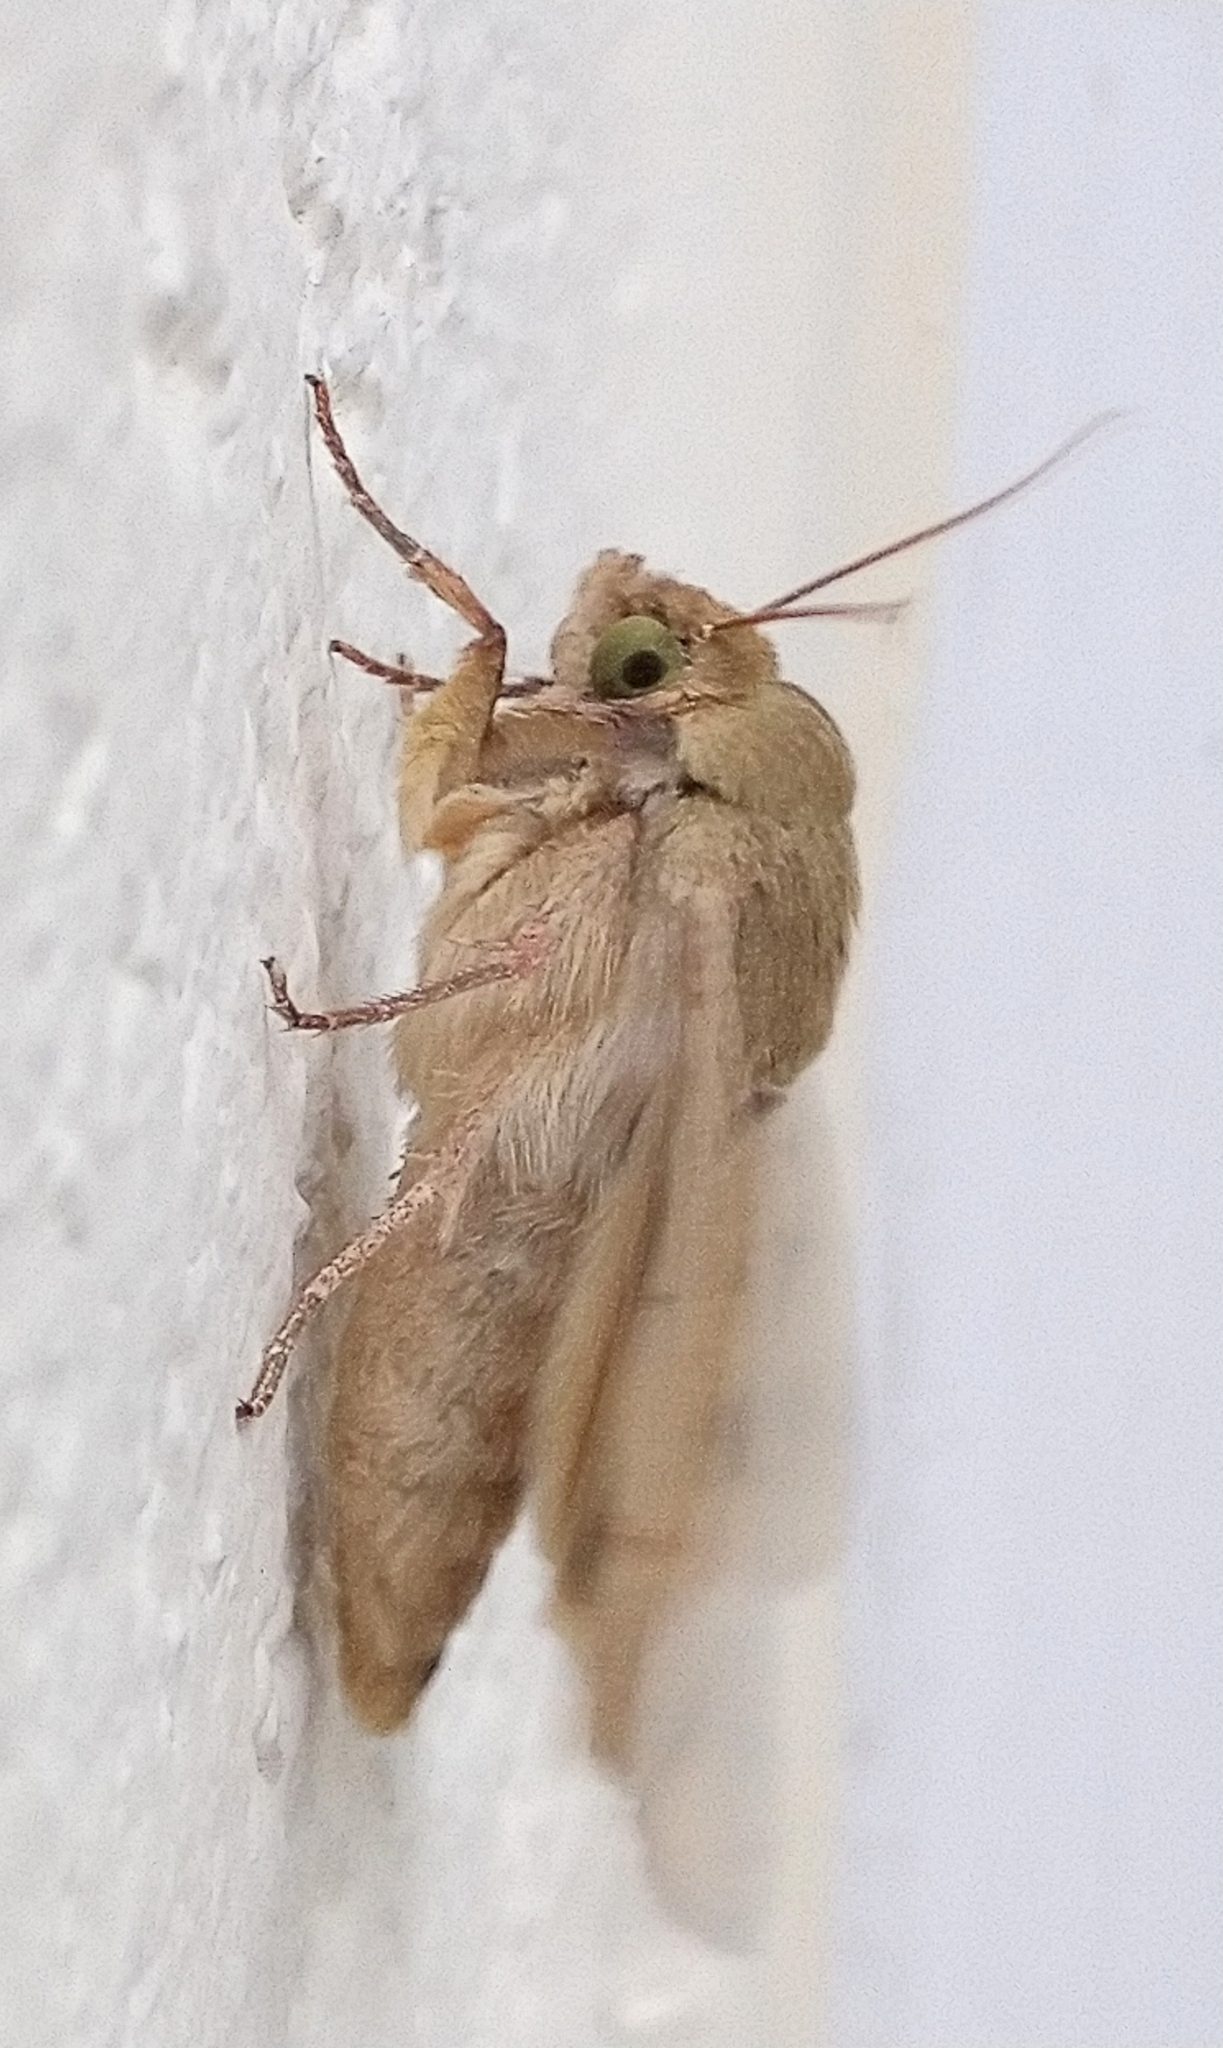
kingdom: Animalia
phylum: Arthropoda
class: Insecta
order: Lepidoptera
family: Noctuidae
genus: Helicoverpa
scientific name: Helicoverpa zea
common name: Bollworm
